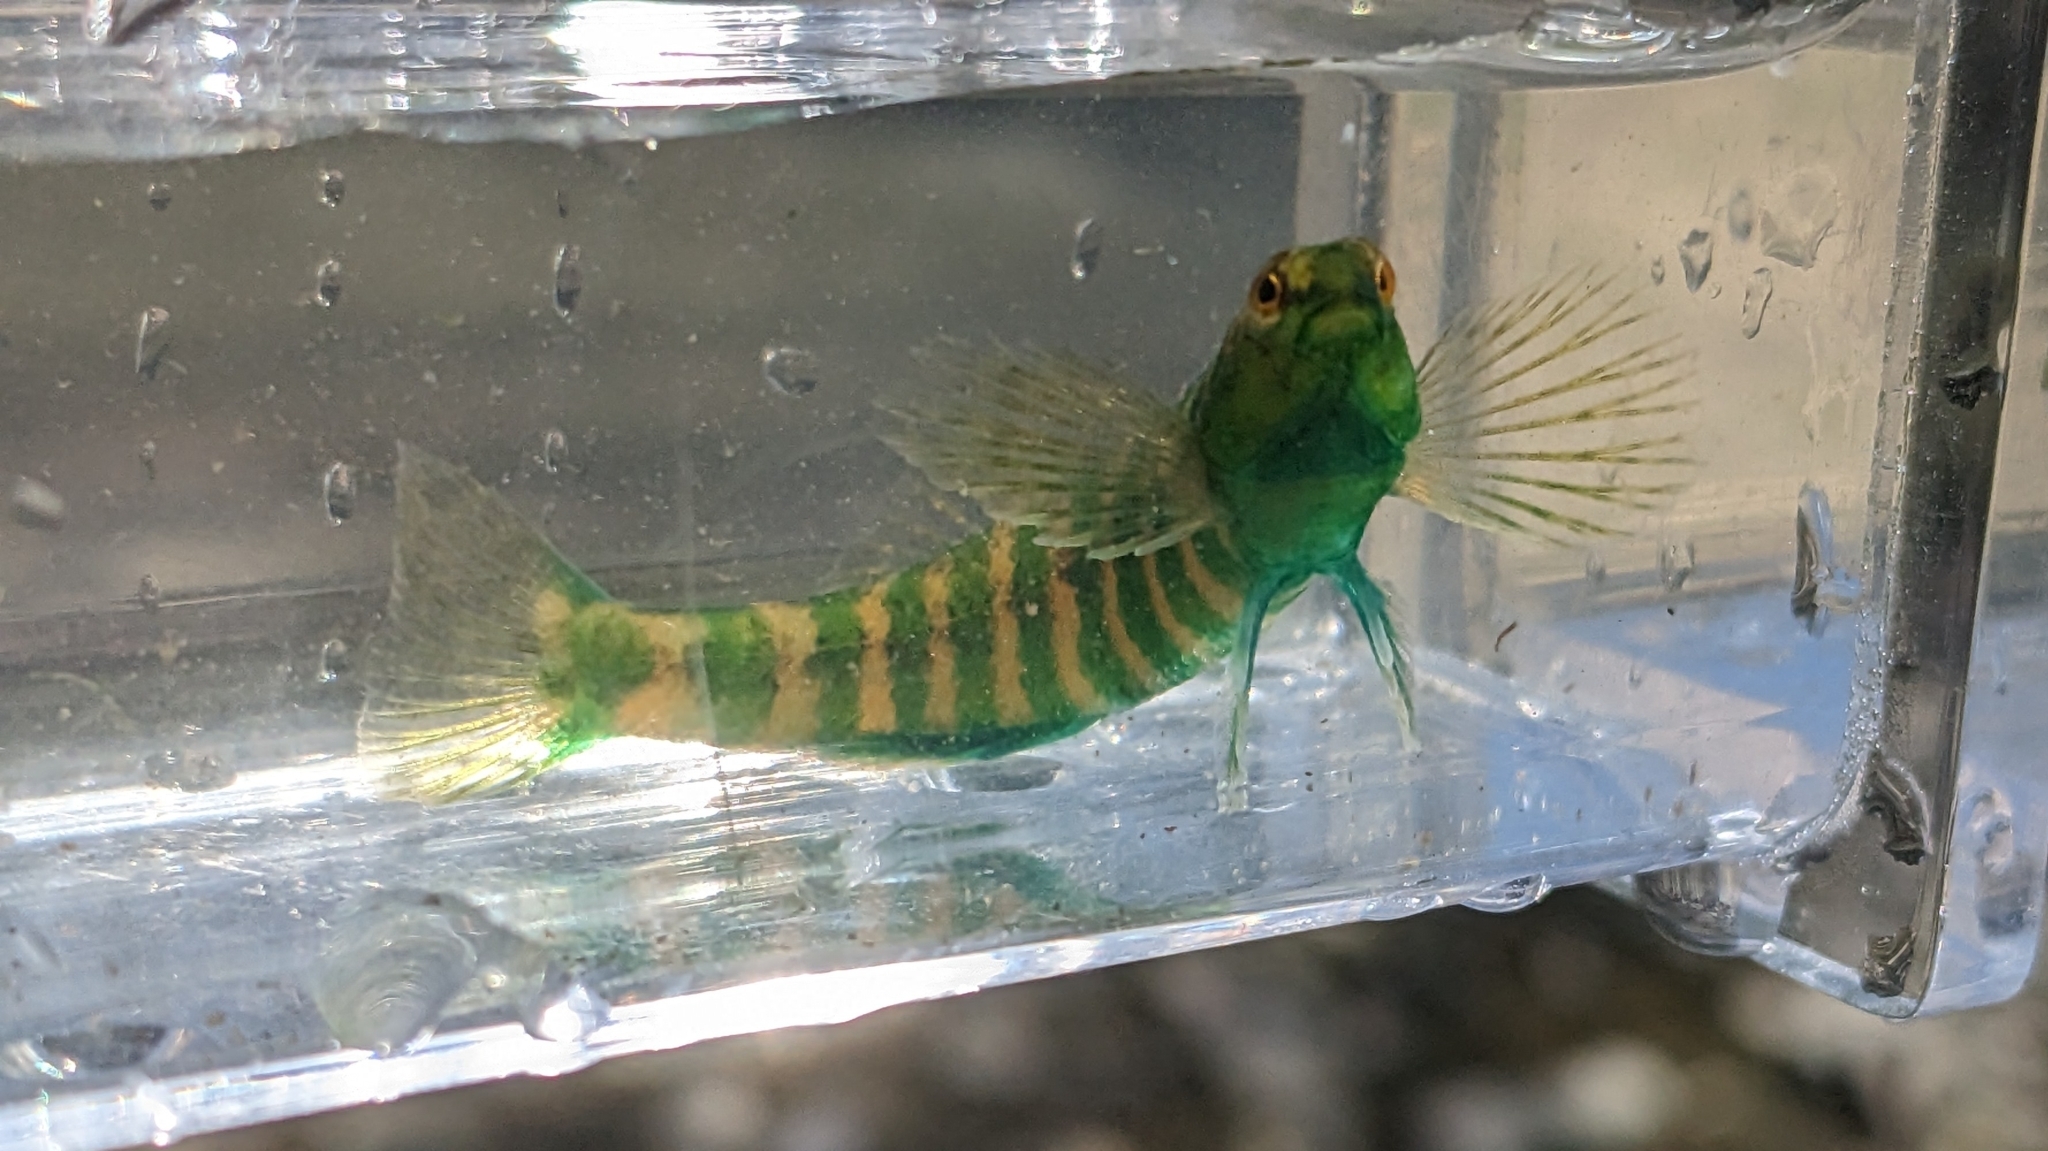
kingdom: Animalia
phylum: Chordata
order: Perciformes
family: Percidae
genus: Etheostoma
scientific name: Etheostoma zonale
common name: Banded darter
